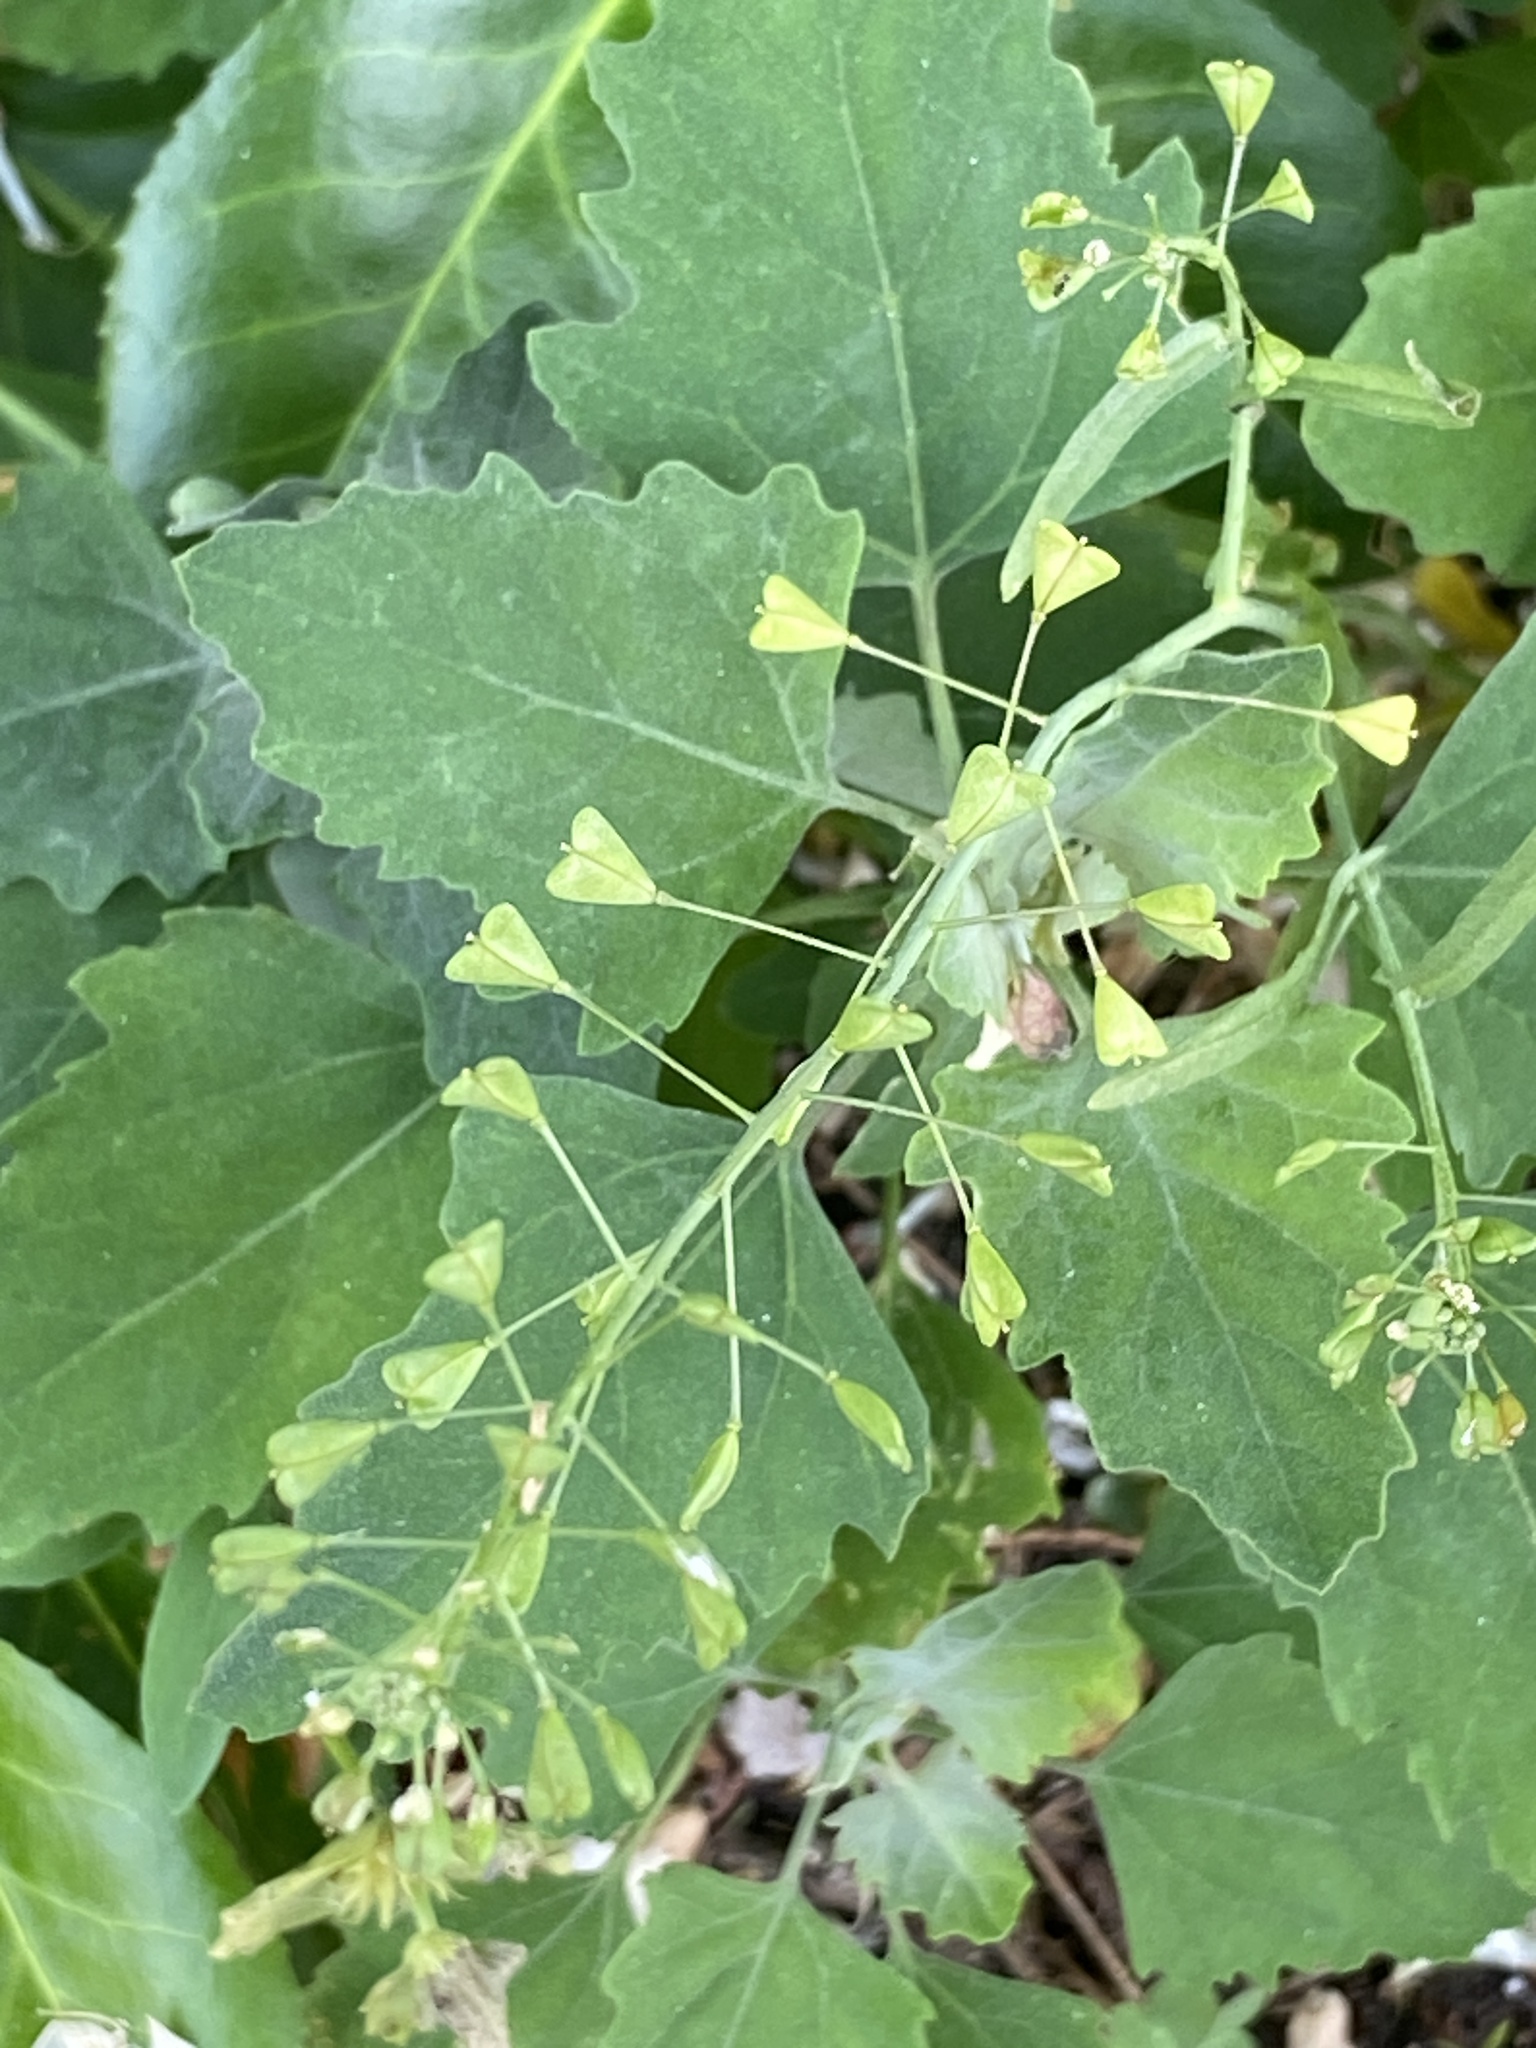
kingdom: Plantae
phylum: Tracheophyta
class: Magnoliopsida
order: Brassicales
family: Brassicaceae
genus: Capsella
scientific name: Capsella bursa-pastoris
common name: Shepherd's purse
